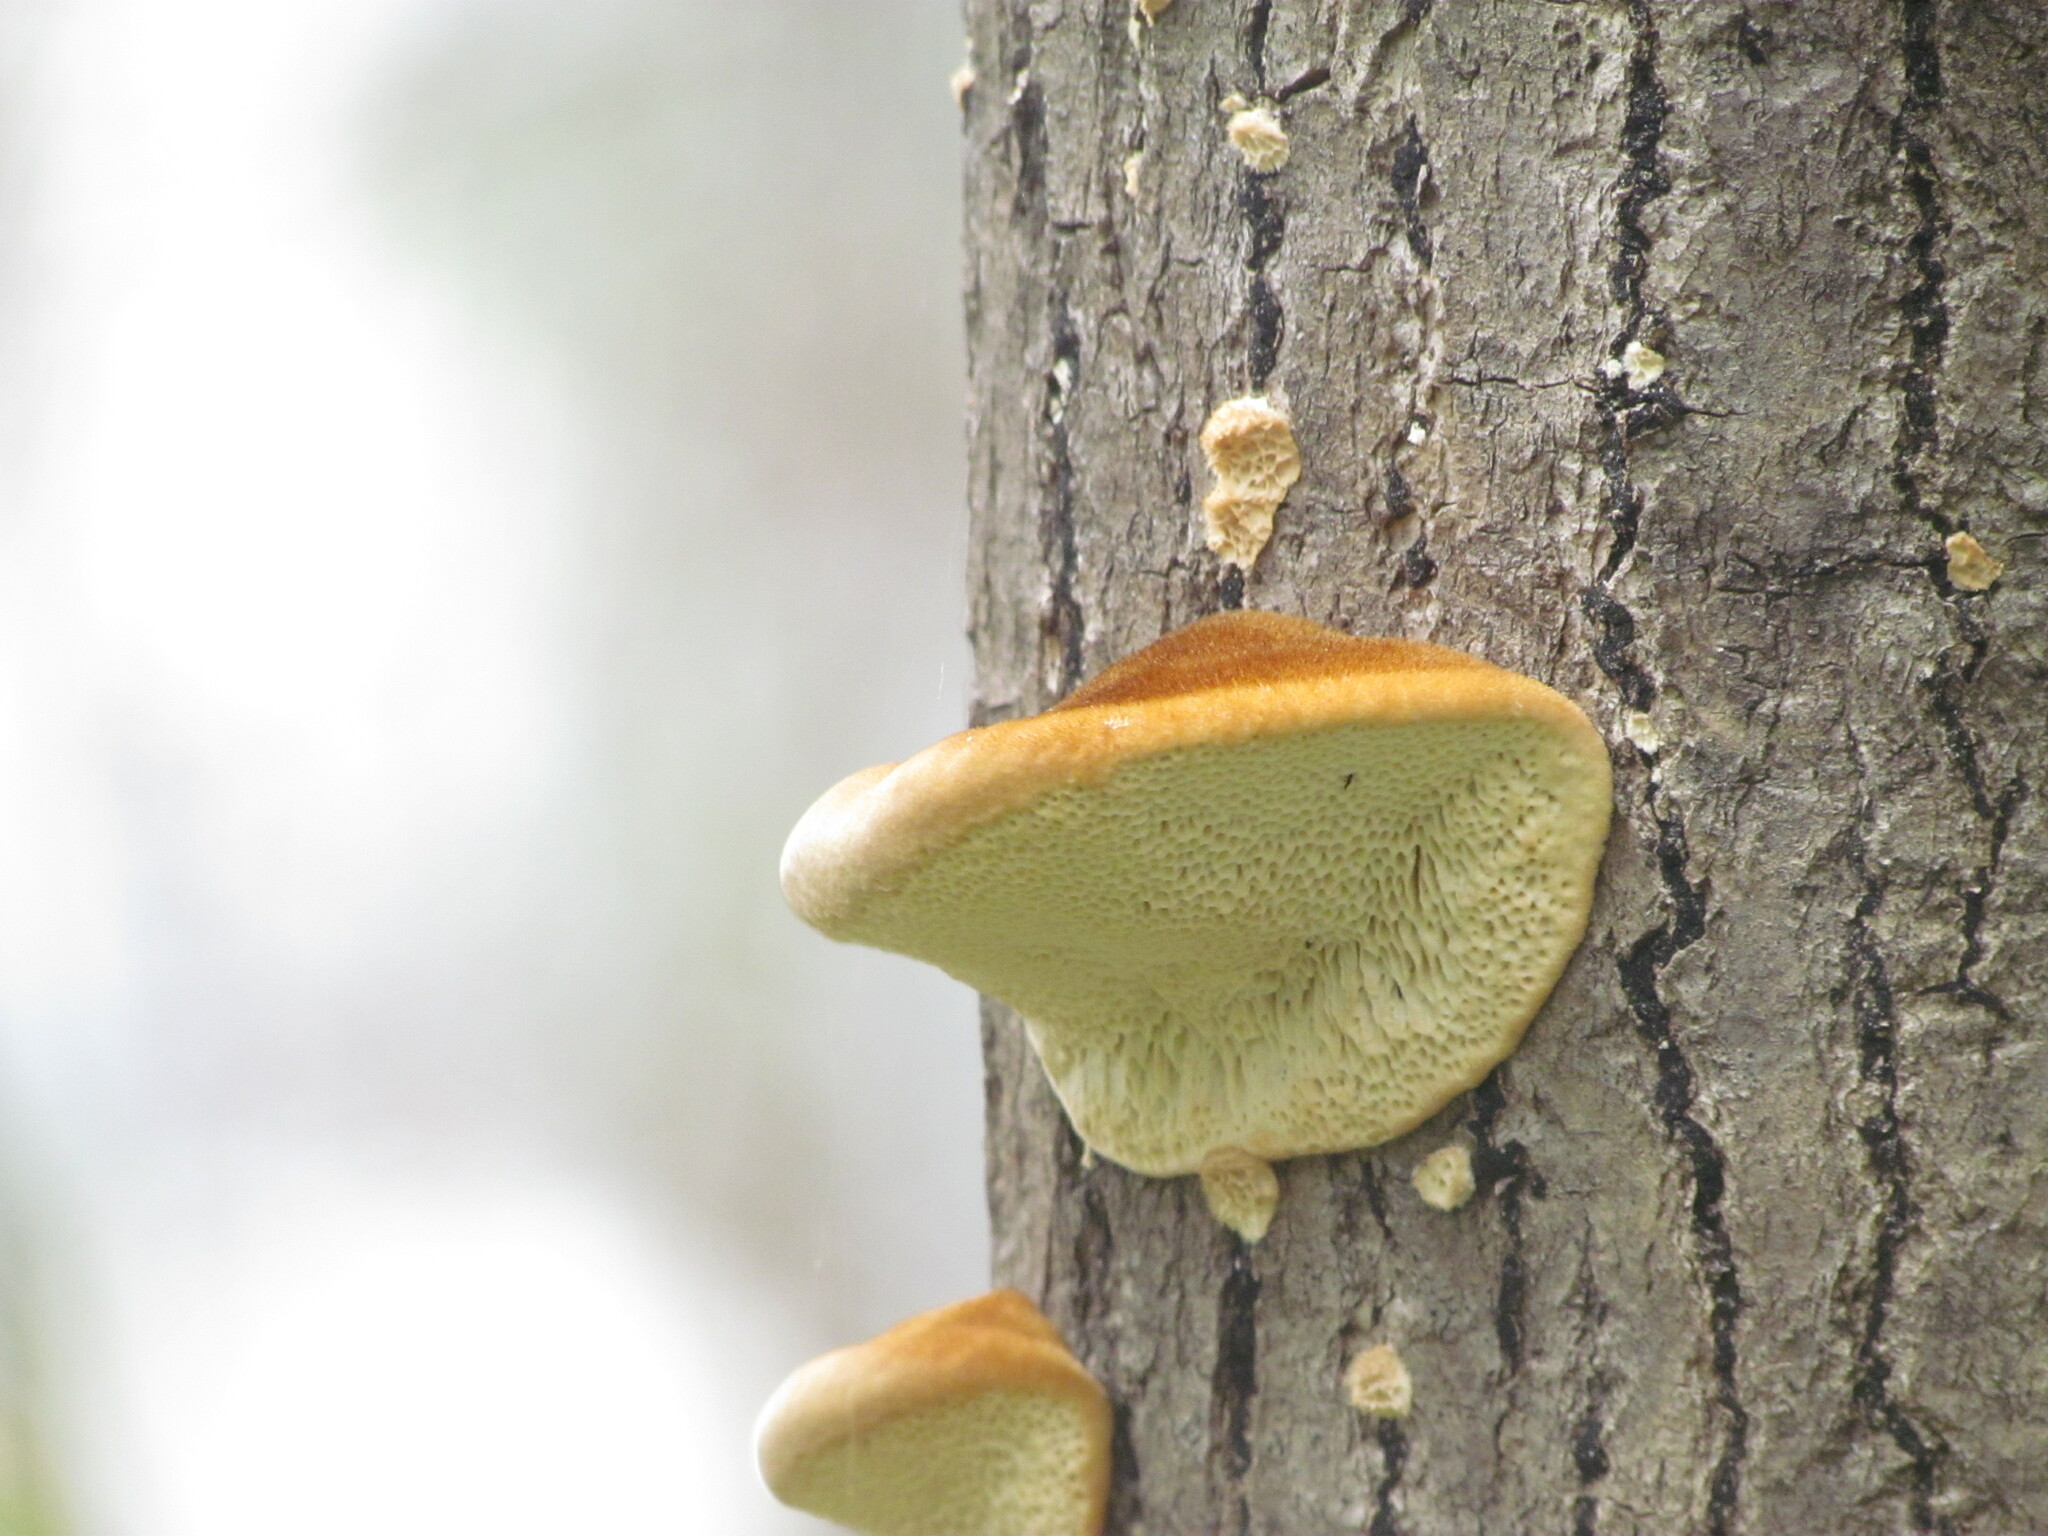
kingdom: Fungi
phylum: Basidiomycota
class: Agaricomycetes
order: Polyporales
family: Polyporaceae
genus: Coriolopsis
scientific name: Coriolopsis gallica
